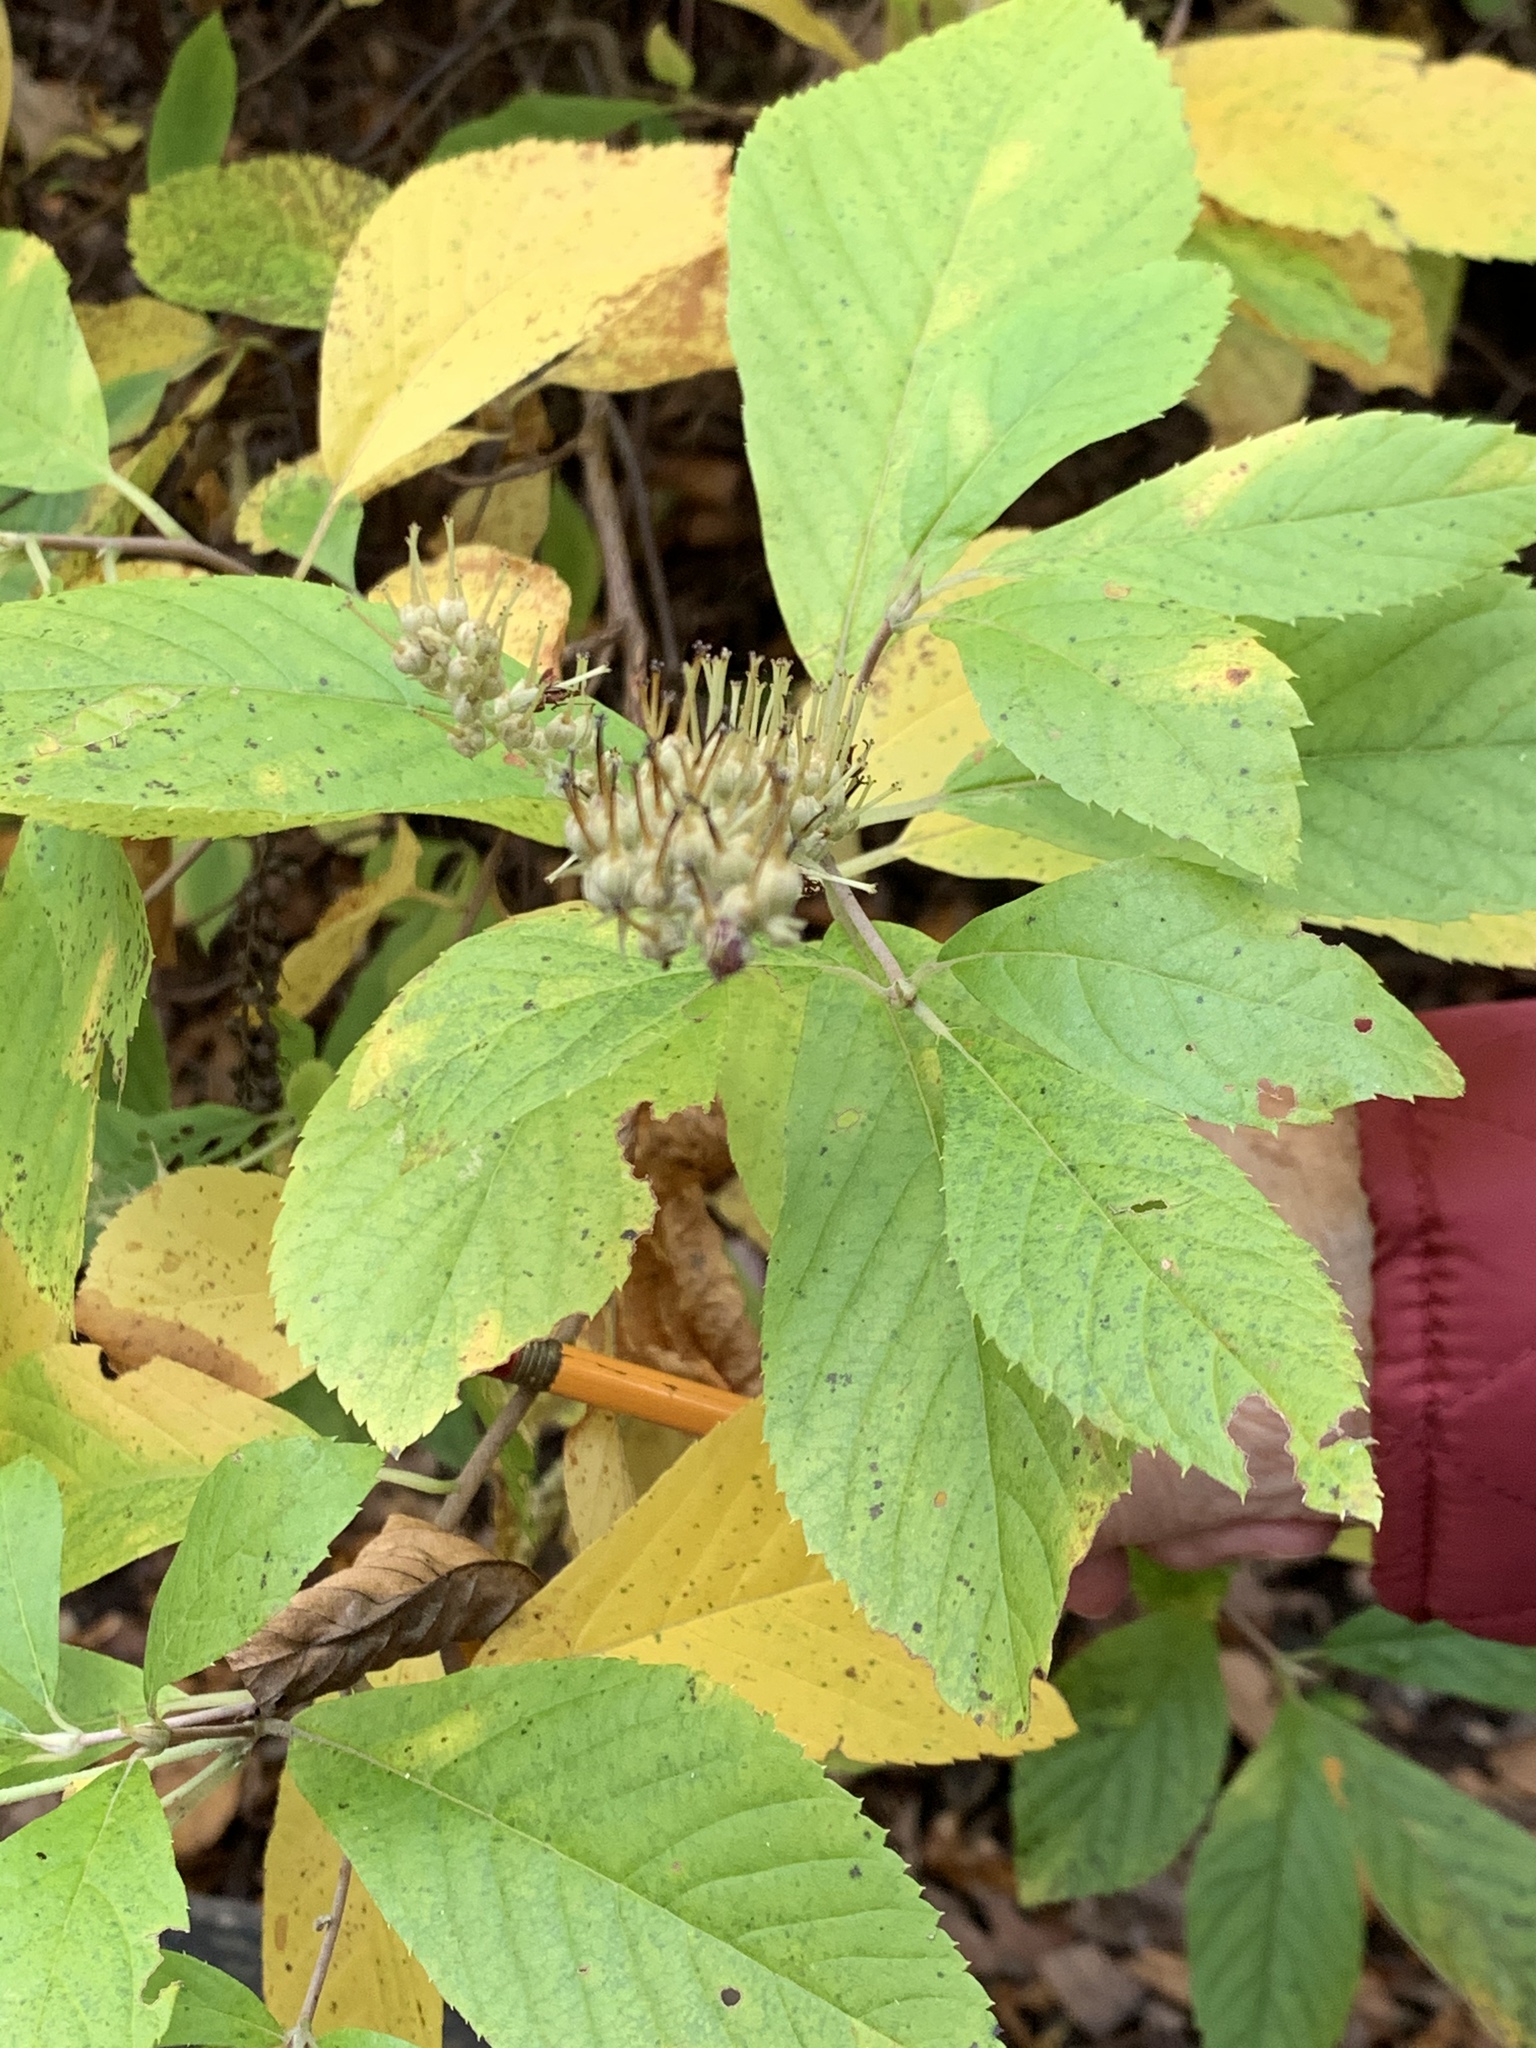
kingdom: Plantae
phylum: Tracheophyta
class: Magnoliopsida
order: Ericales
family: Clethraceae
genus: Clethra
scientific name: Clethra alnifolia
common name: Sweet pepperbush
